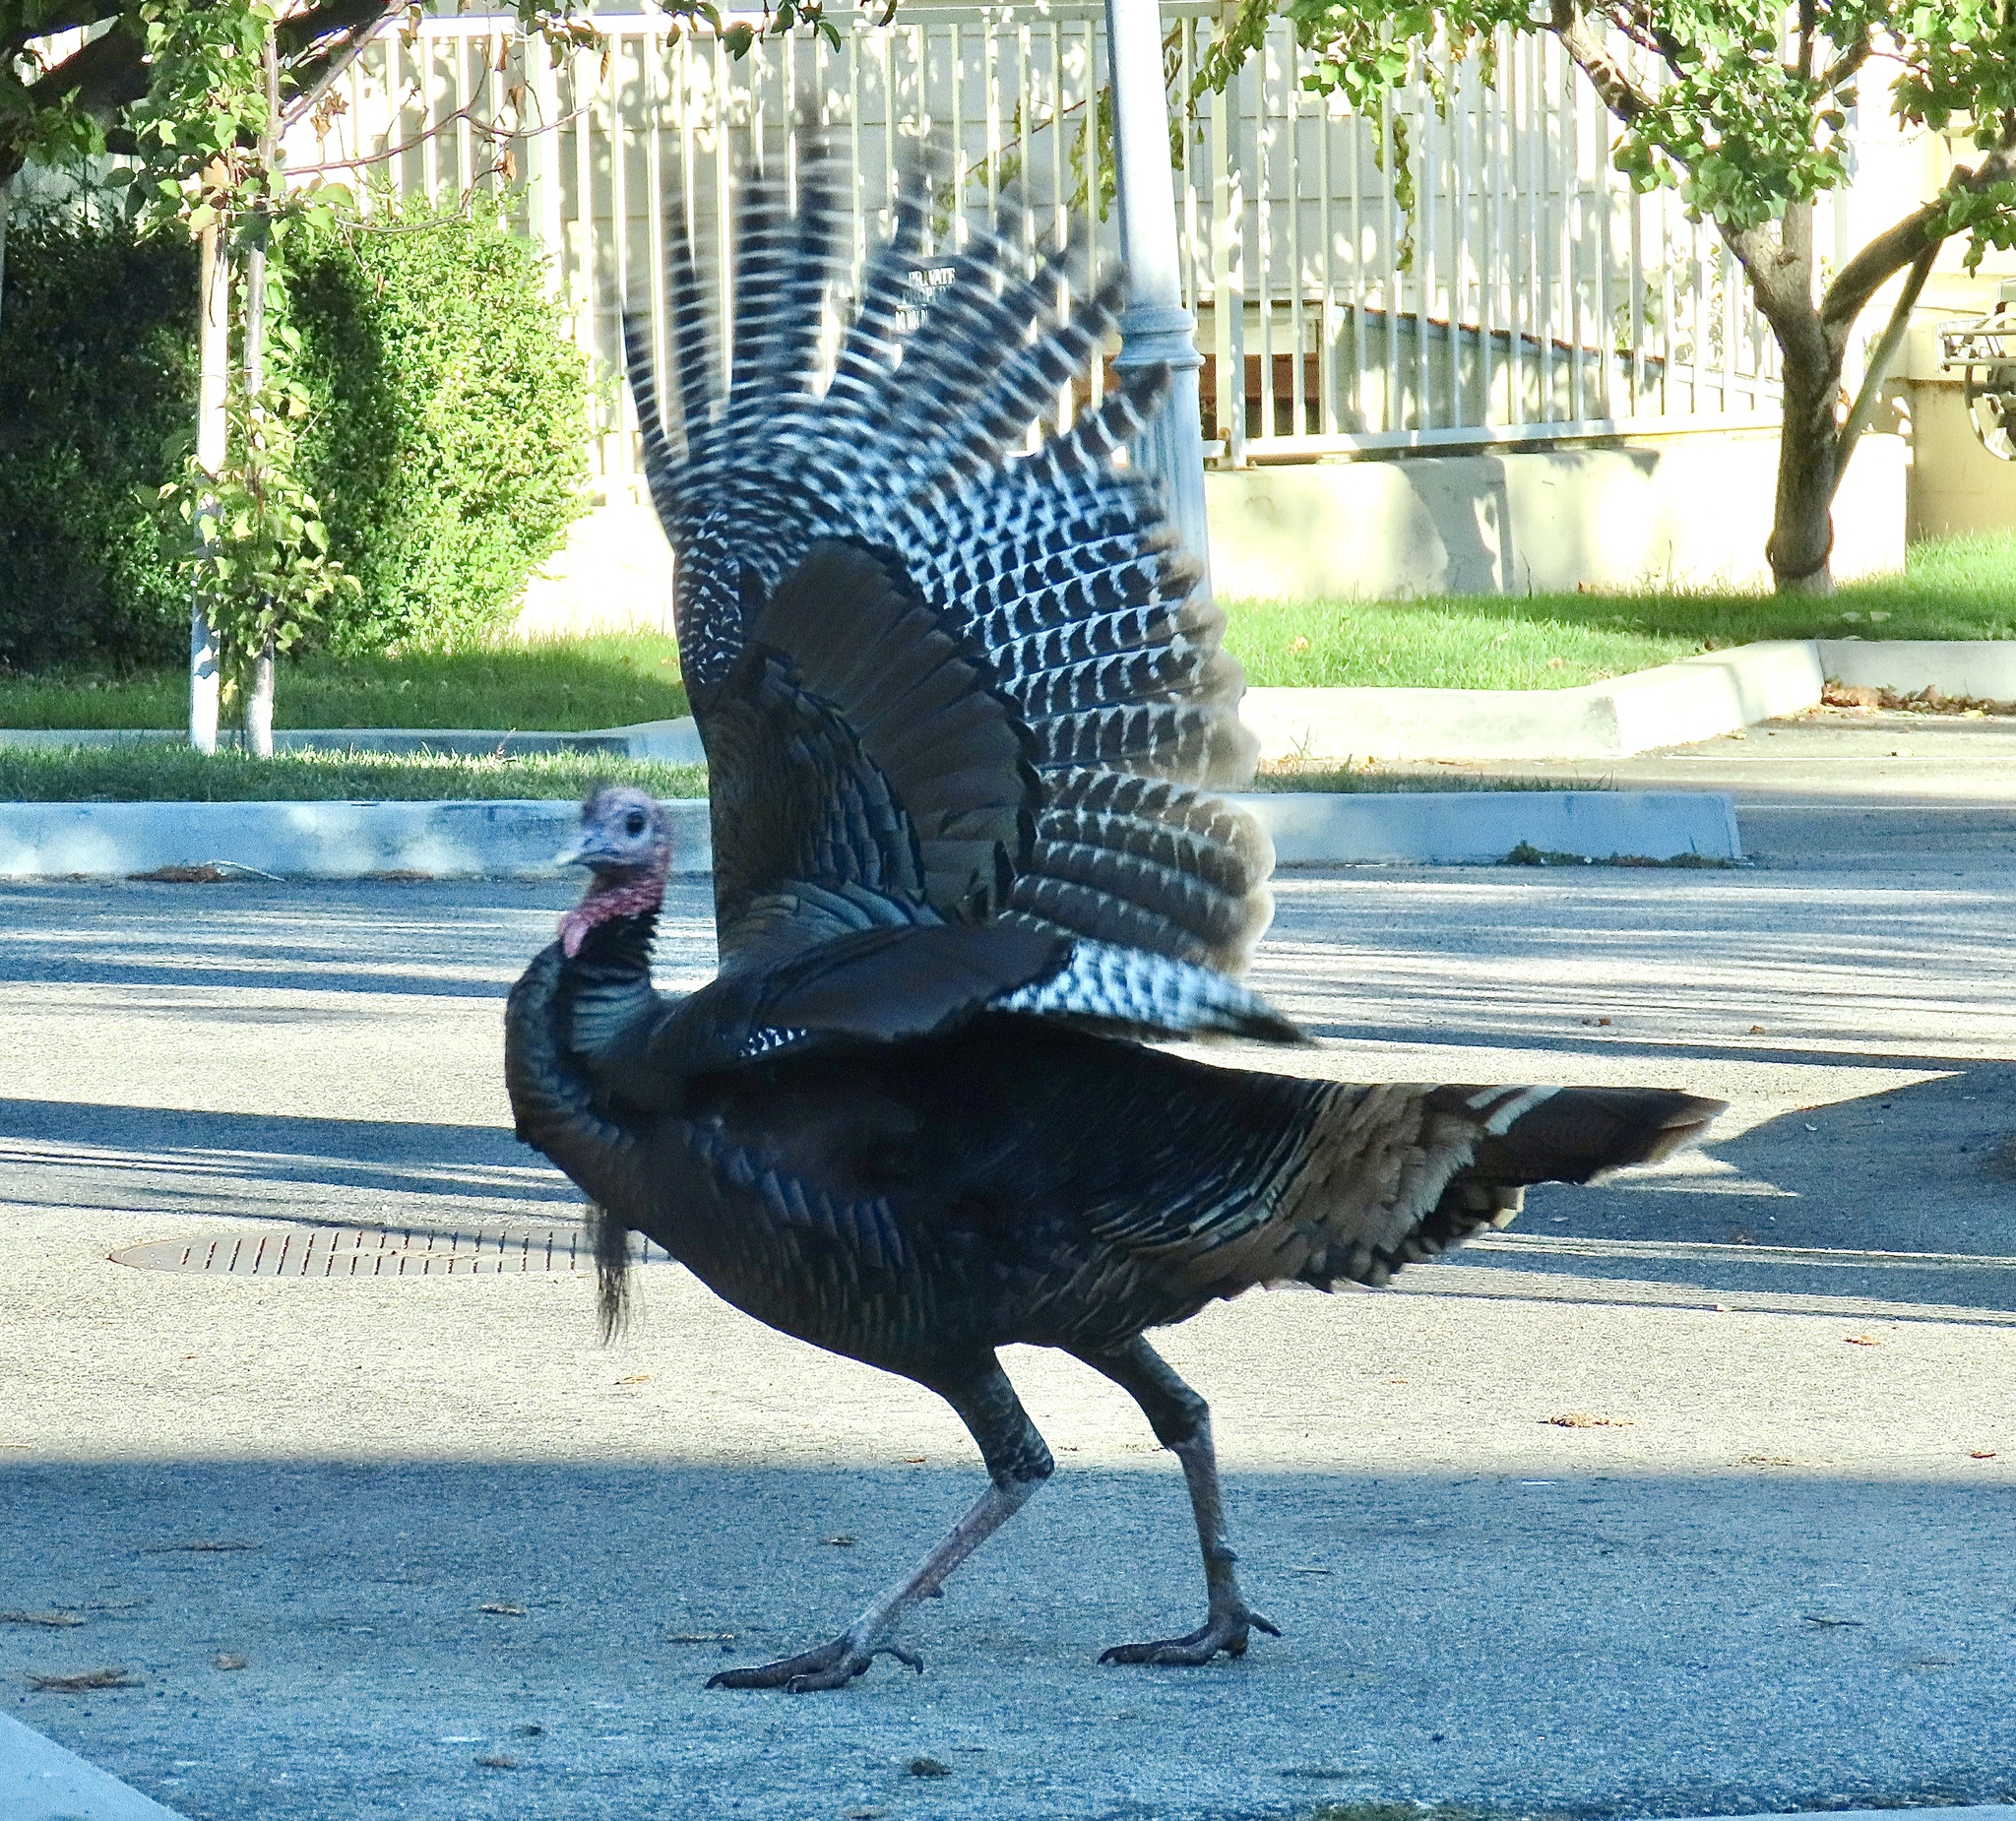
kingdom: Animalia
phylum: Chordata
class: Aves
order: Galliformes
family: Phasianidae
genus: Meleagris
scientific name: Meleagris gallopavo
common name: Wild turkey
